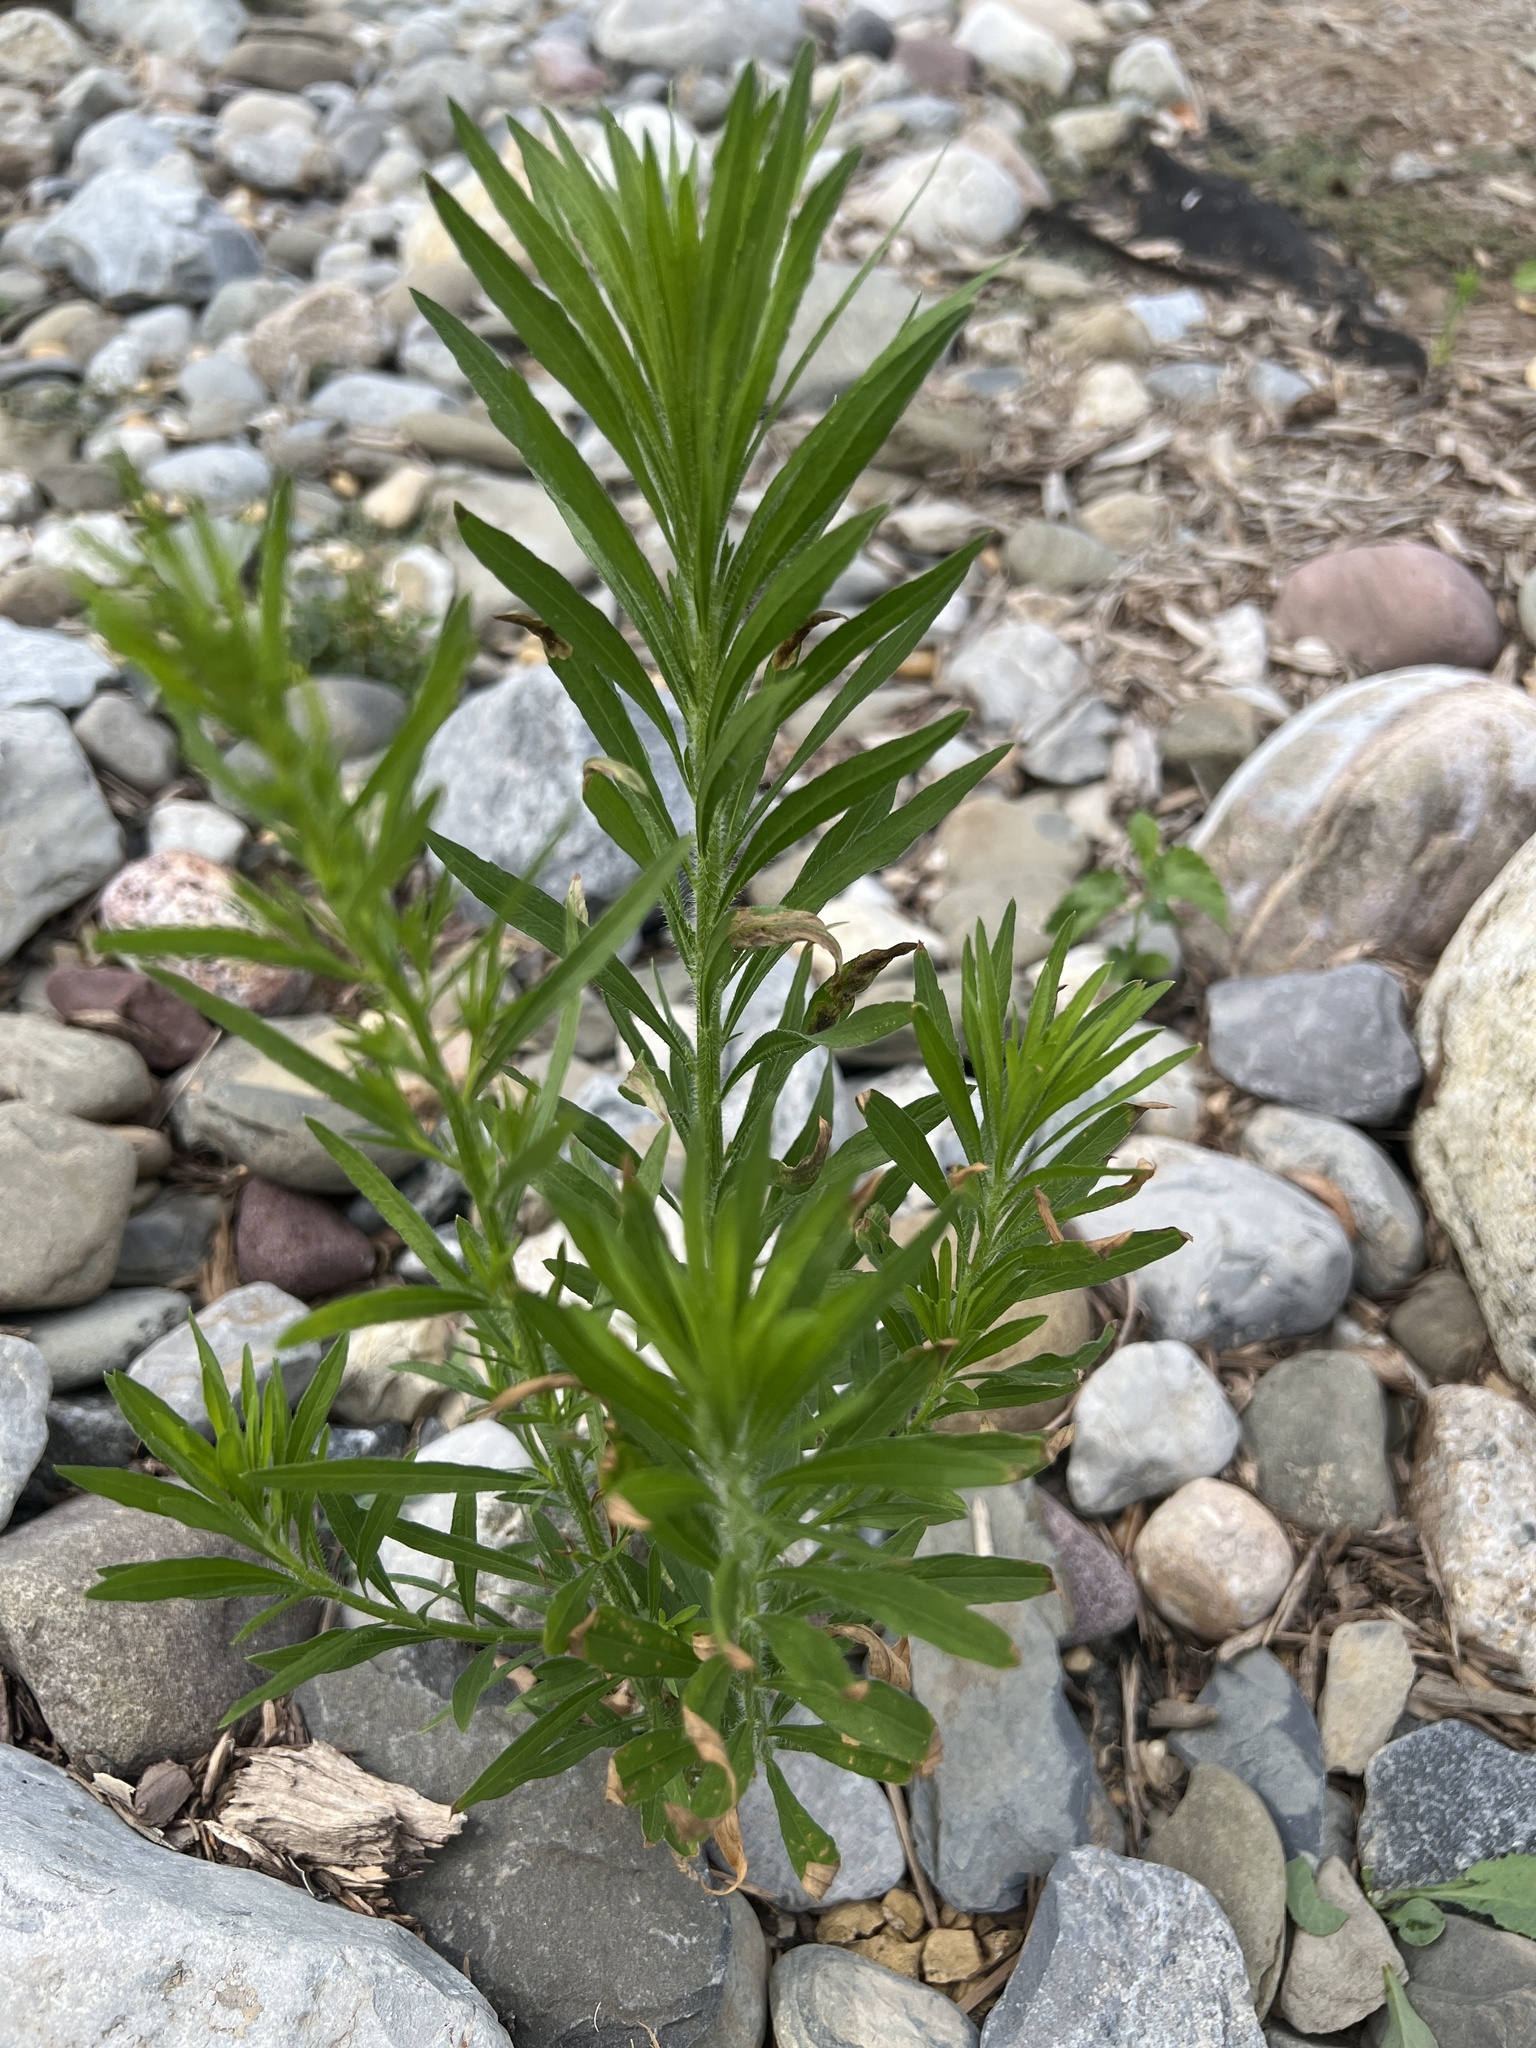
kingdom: Plantae
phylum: Tracheophyta
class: Magnoliopsida
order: Asterales
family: Asteraceae
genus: Erigeron
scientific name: Erigeron canadensis
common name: Canadian fleabane
